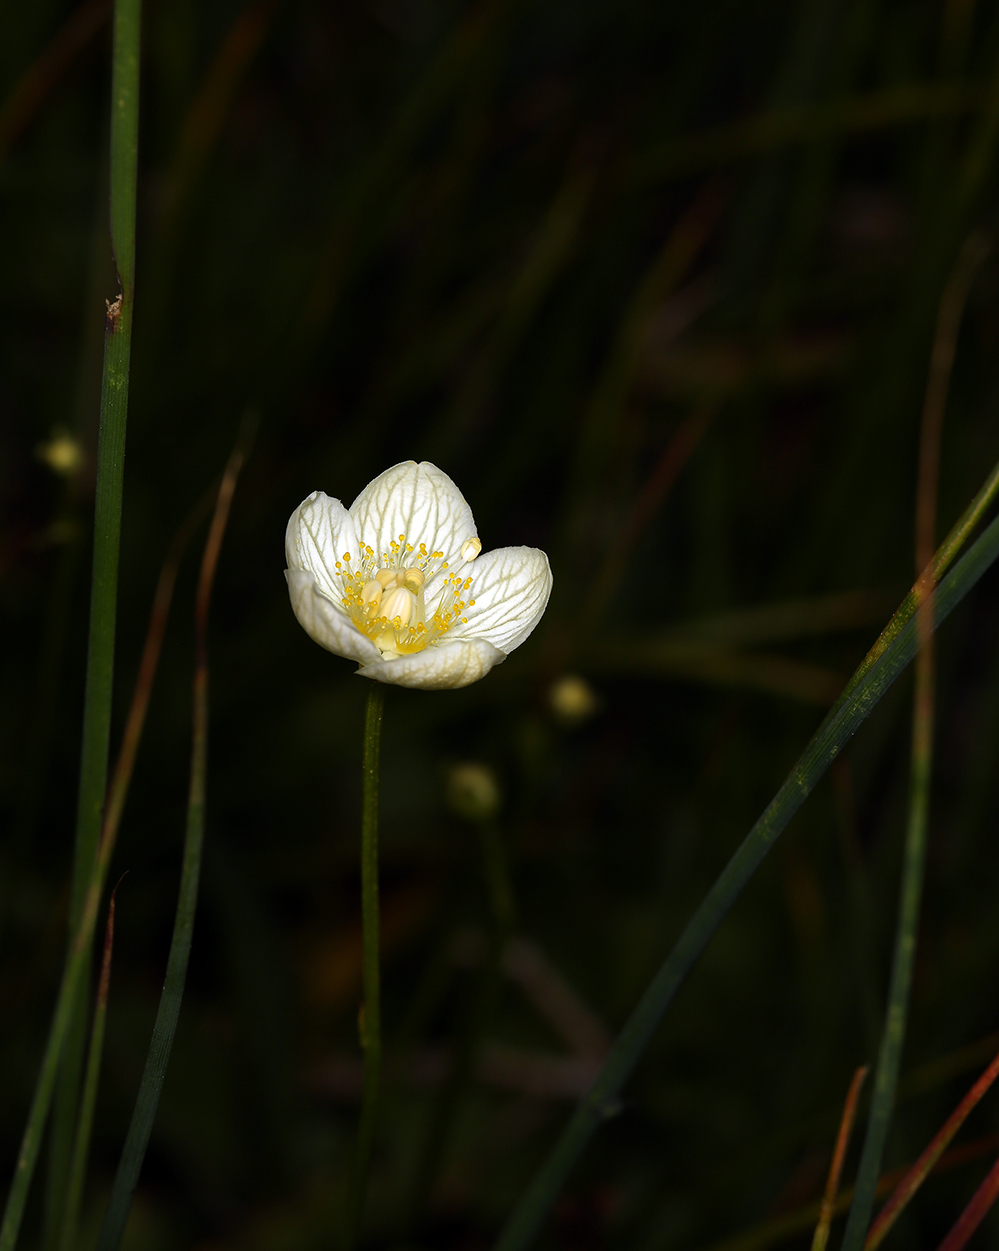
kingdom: Plantae
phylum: Tracheophyta
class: Magnoliopsida
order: Celastrales
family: Parnassiaceae
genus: Parnassia
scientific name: Parnassia palustris
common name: Grass-of-parnassus
